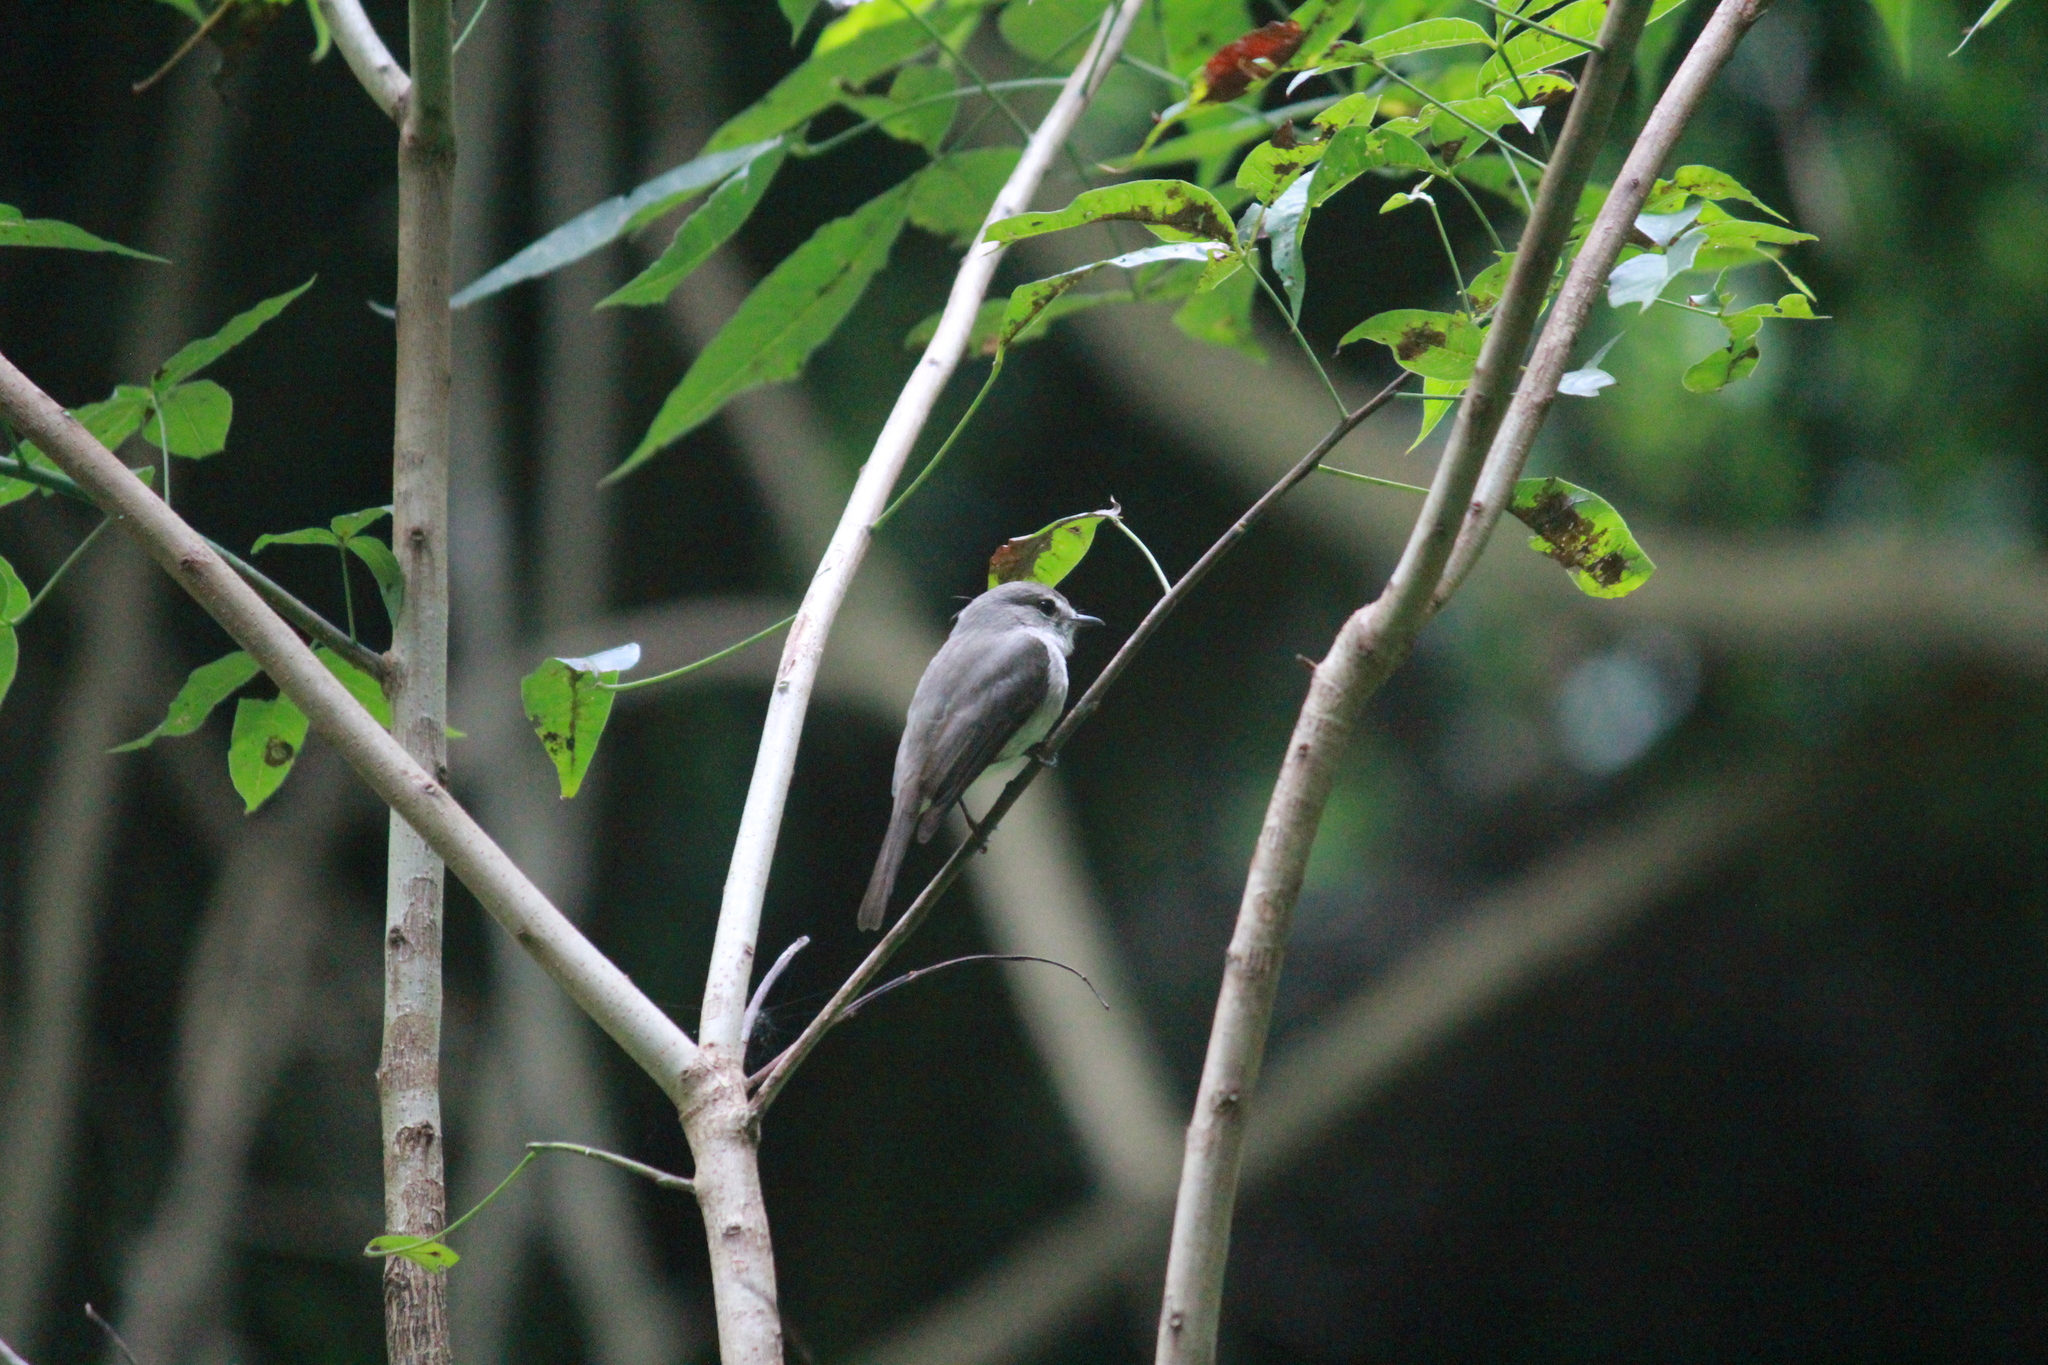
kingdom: Animalia
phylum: Chordata
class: Aves
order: Passeriformes
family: Muscicapidae
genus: Muscicapa
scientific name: Muscicapa caerulescens
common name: Ashy flycatcher
